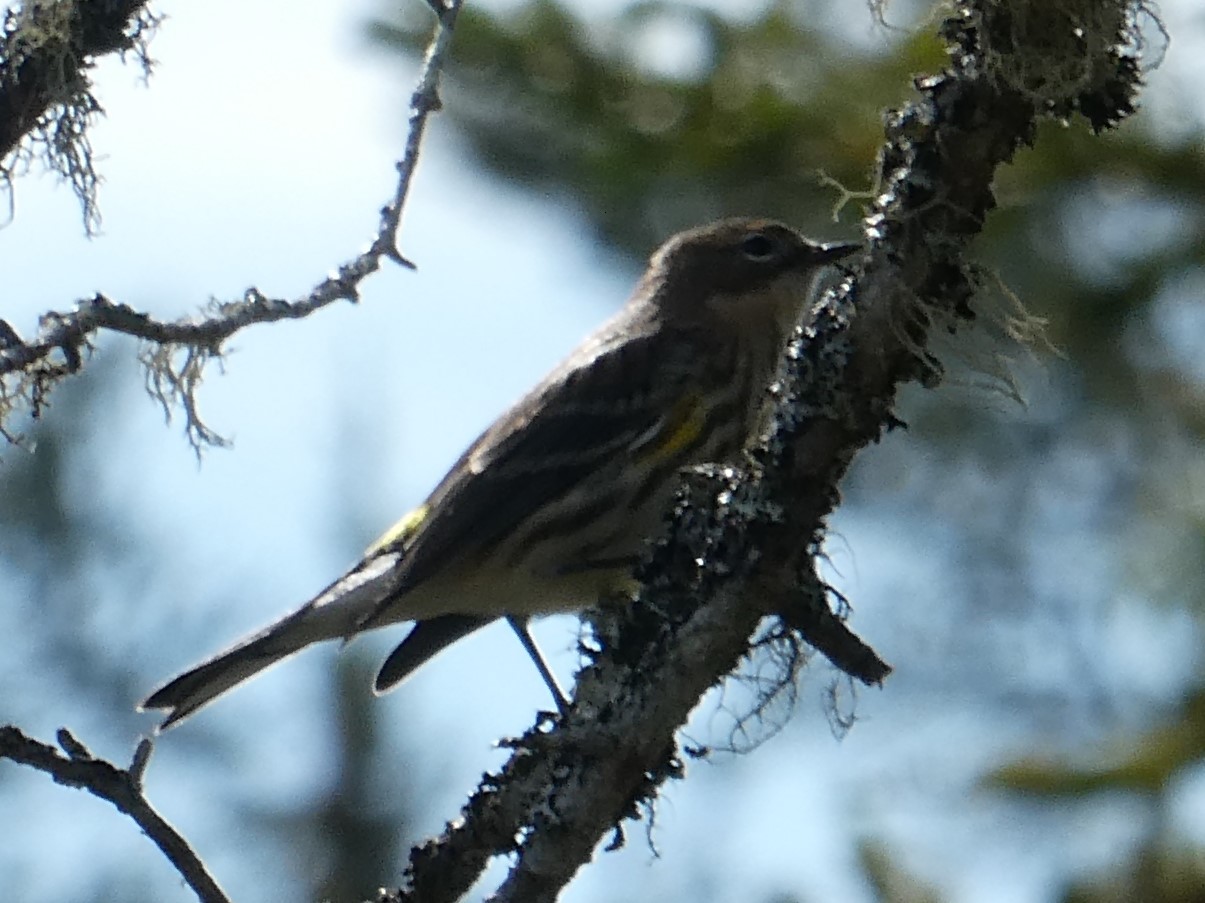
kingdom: Animalia
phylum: Chordata
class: Aves
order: Passeriformes
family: Parulidae
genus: Setophaga
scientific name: Setophaga coronata
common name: Myrtle warbler
